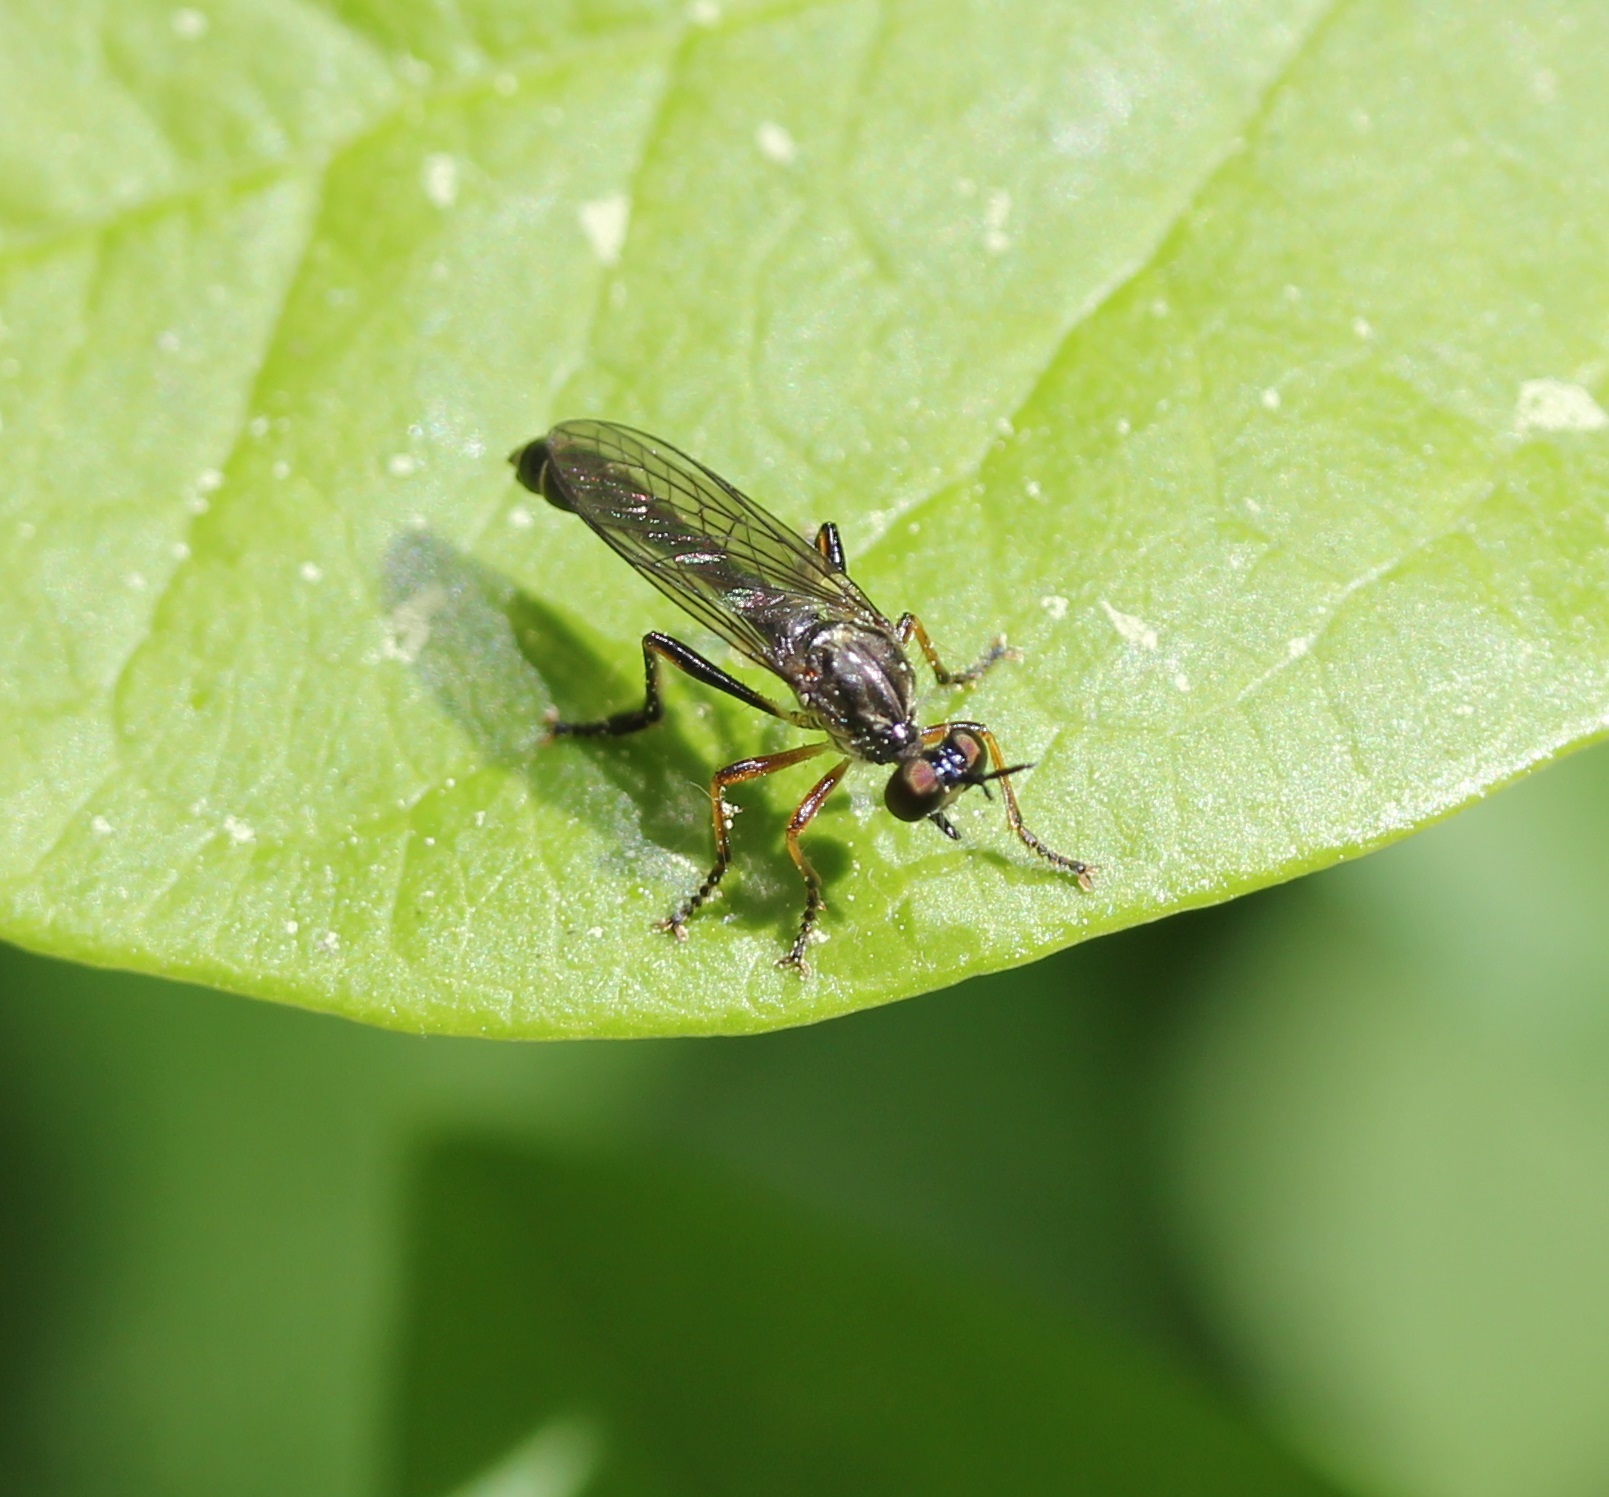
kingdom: Animalia
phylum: Arthropoda
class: Insecta
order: Diptera
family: Asilidae
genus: Dioctria
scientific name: Dioctria hyalipennis
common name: Stripe-legged robberfly
